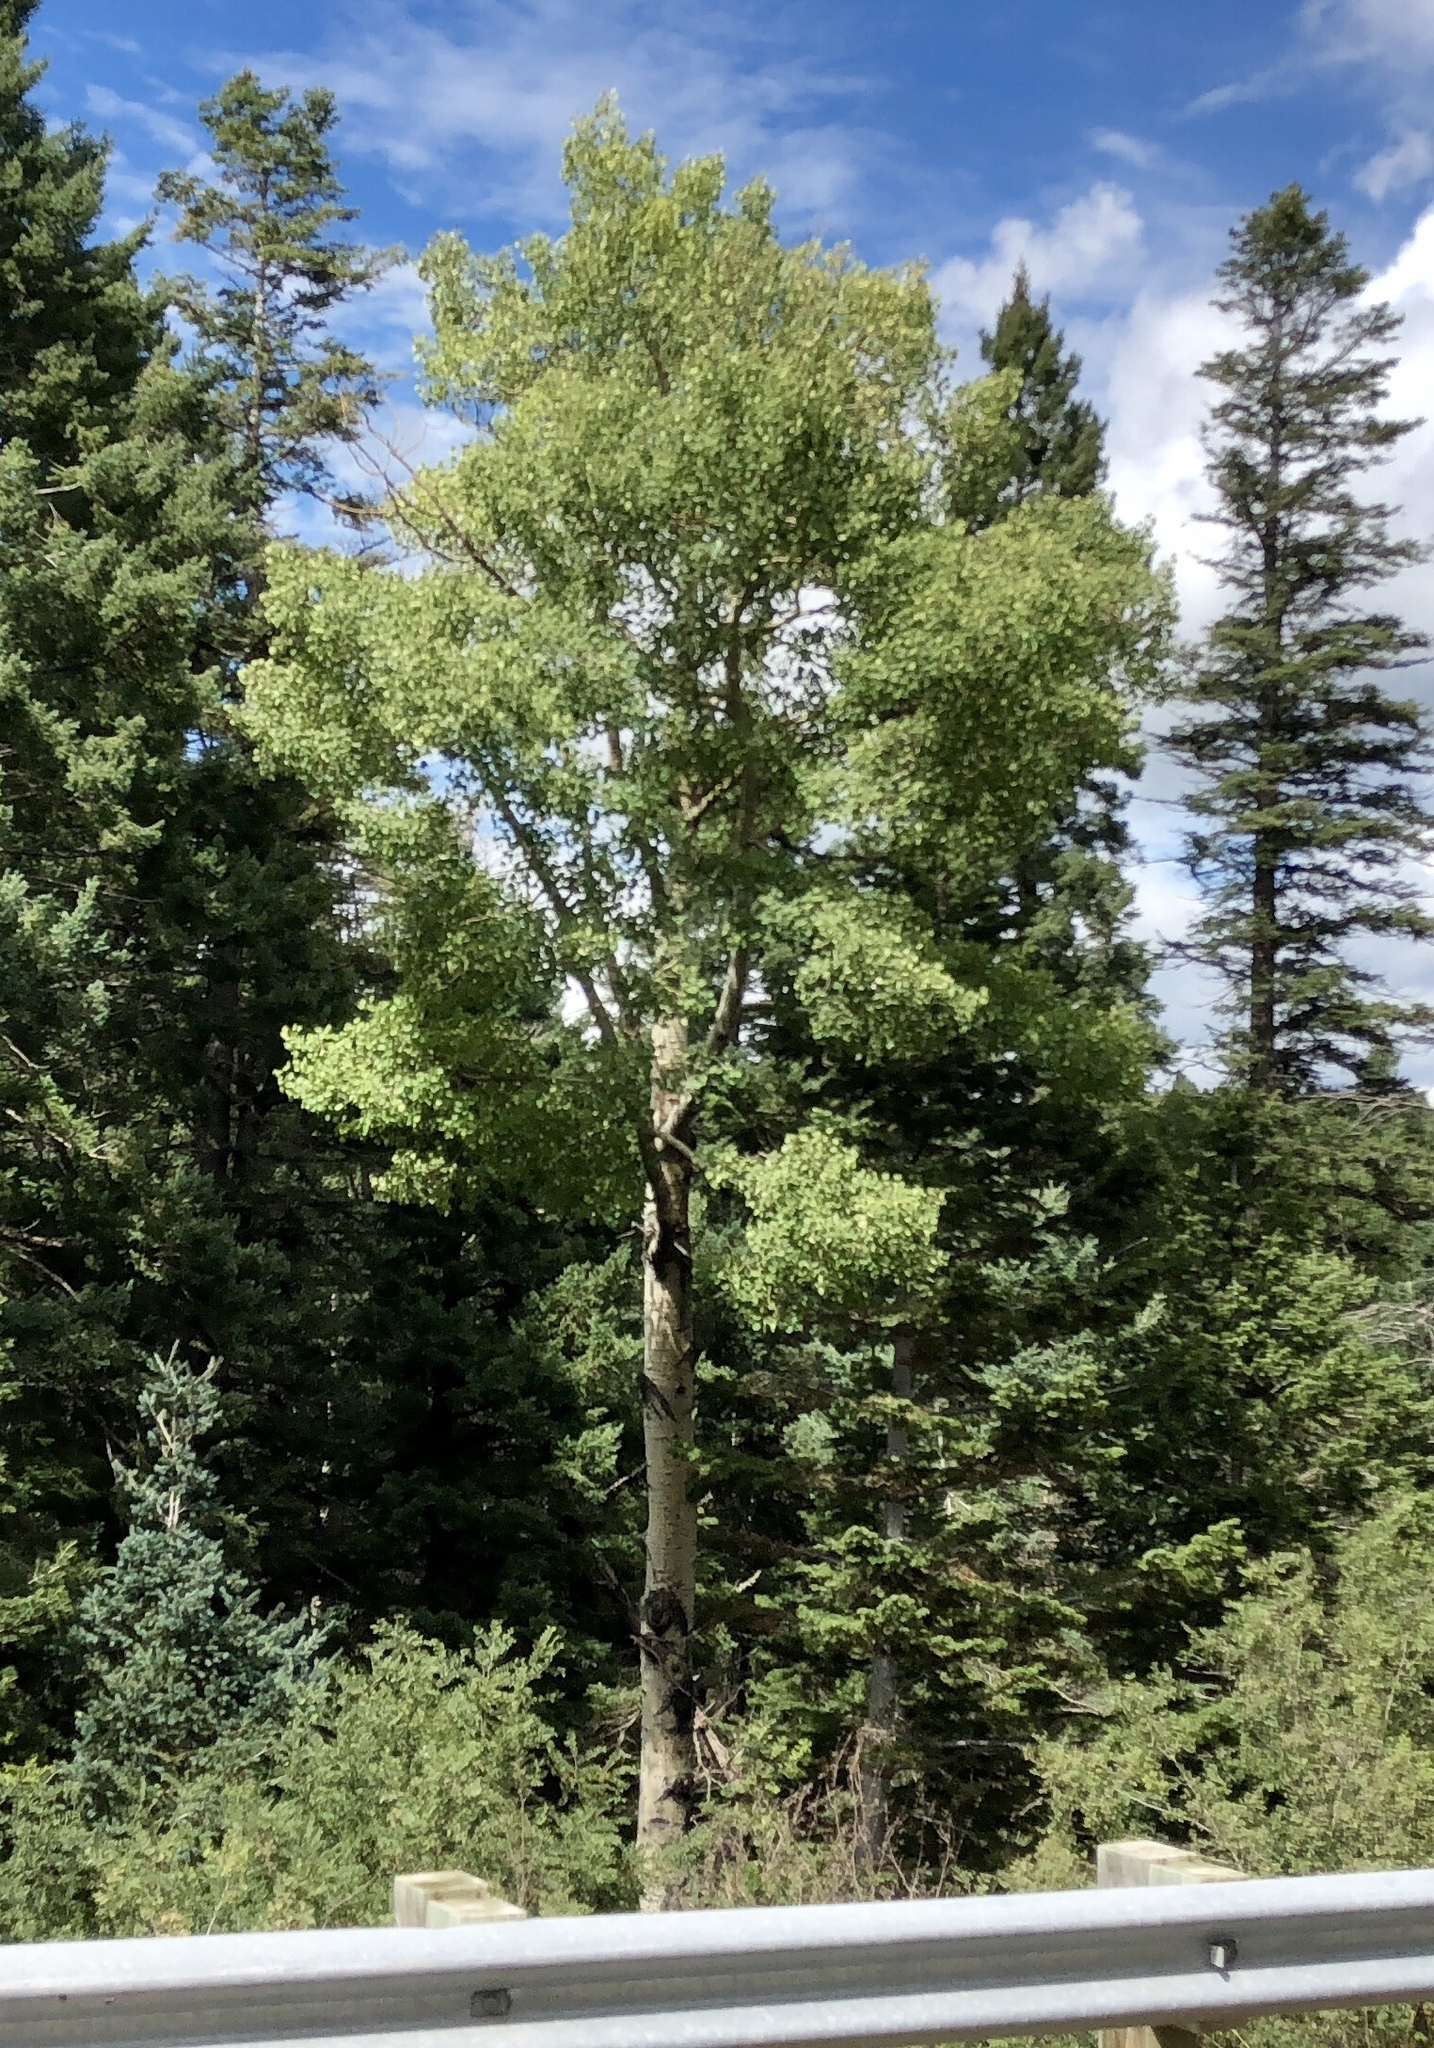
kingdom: Plantae
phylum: Tracheophyta
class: Magnoliopsida
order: Malpighiales
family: Salicaceae
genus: Populus
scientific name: Populus tremuloides
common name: Quaking aspen
